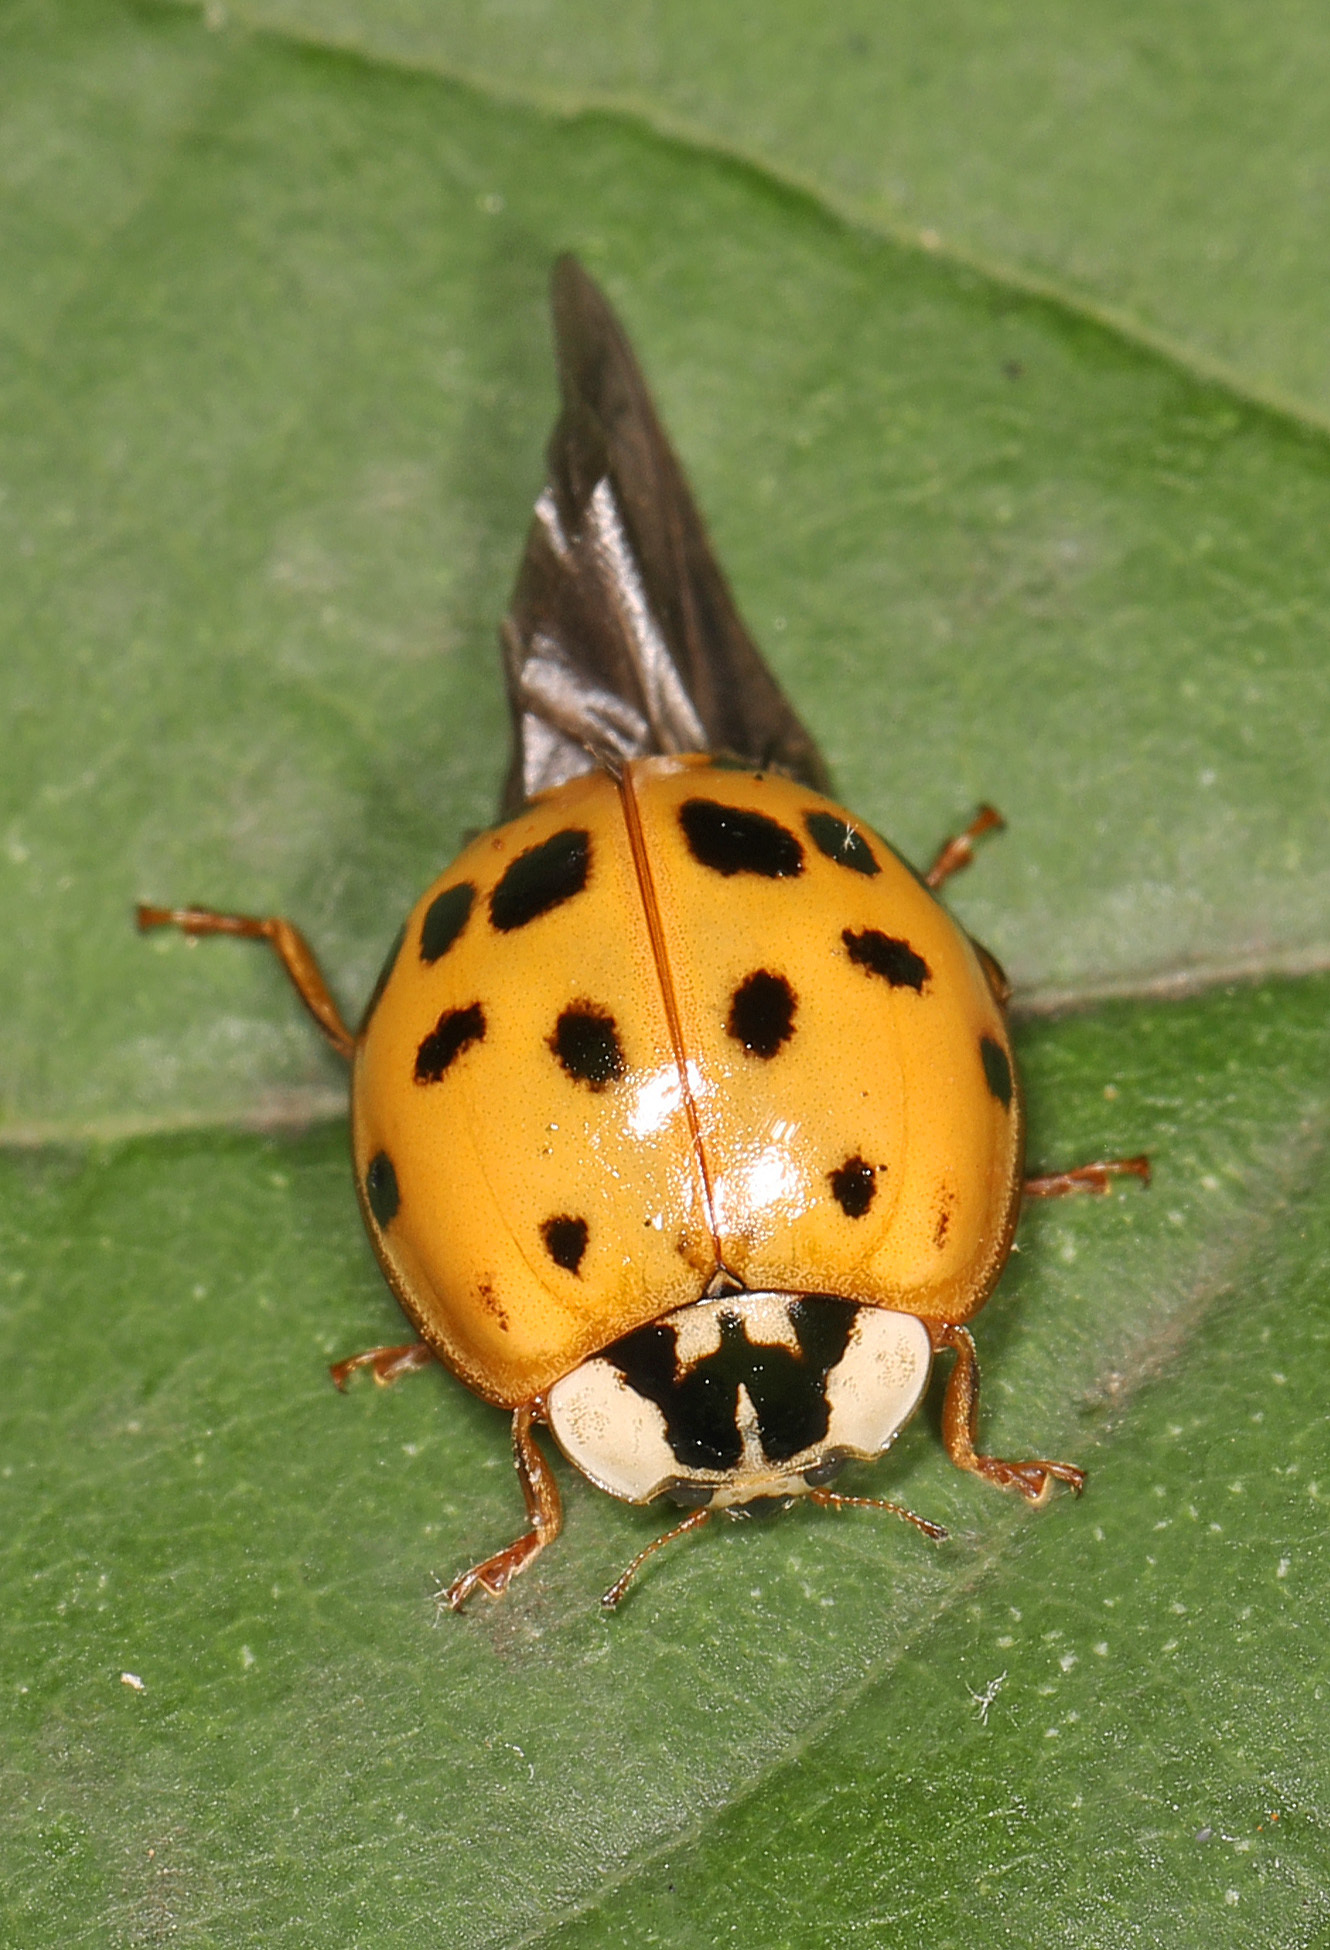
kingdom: Animalia
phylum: Arthropoda
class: Insecta
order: Coleoptera
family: Coccinellidae
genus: Harmonia
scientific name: Harmonia axyridis
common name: Harlequin ladybird
